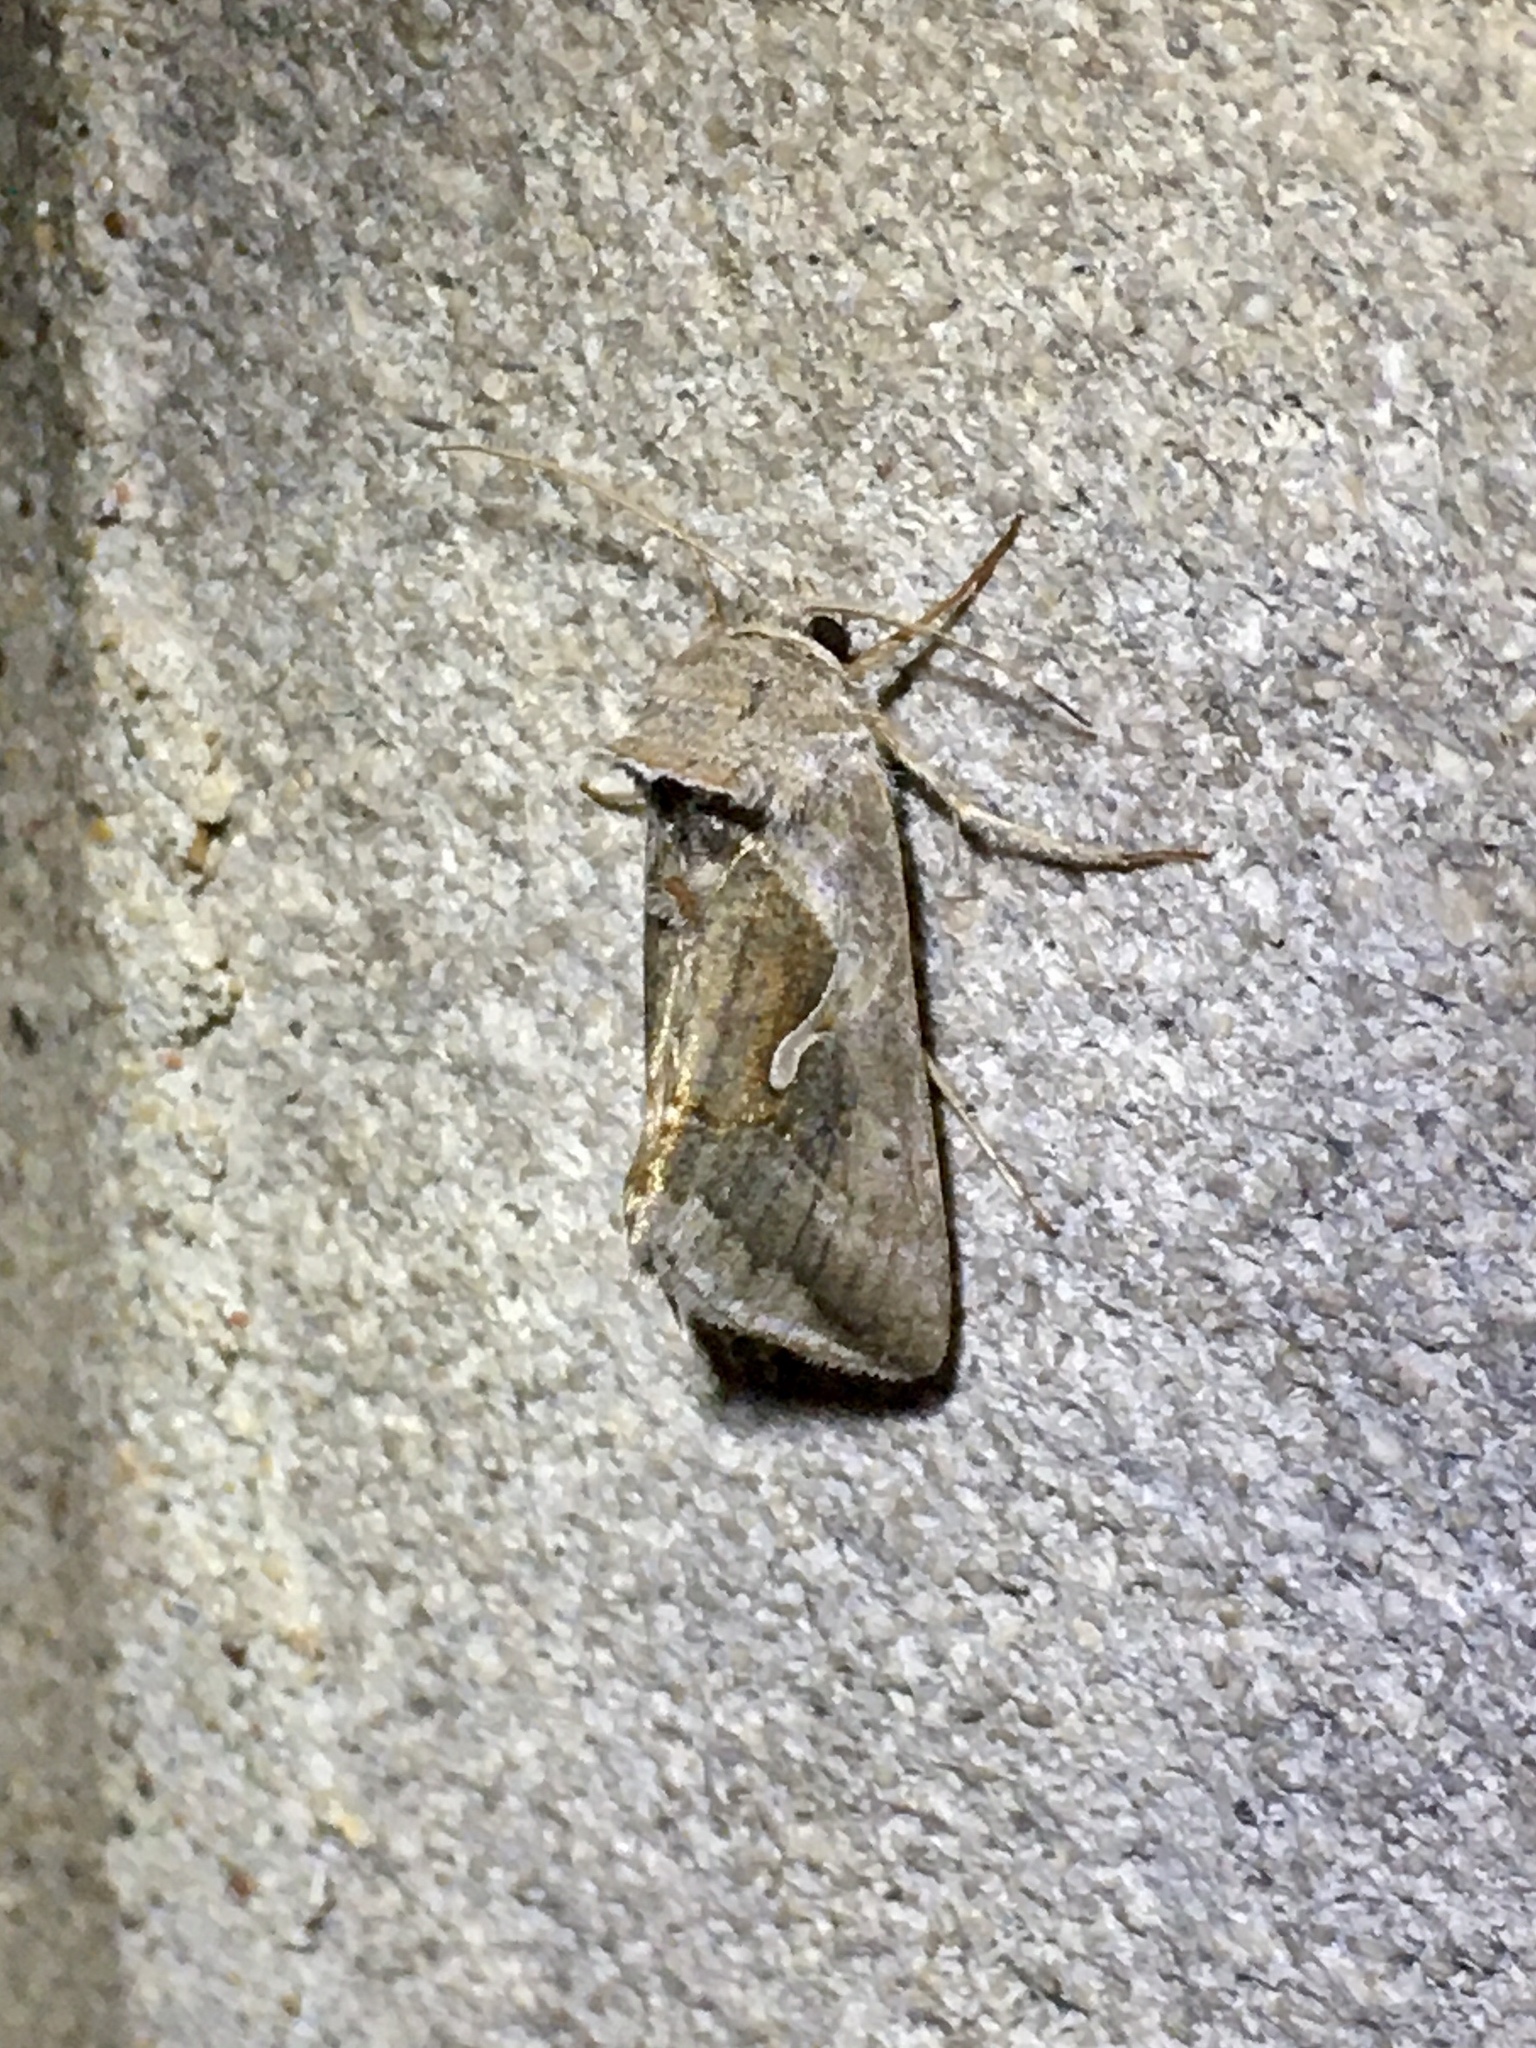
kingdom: Animalia
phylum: Arthropoda
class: Insecta
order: Lepidoptera
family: Noctuidae
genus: Anagrapha
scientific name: Anagrapha falcifera
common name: Celery looper
